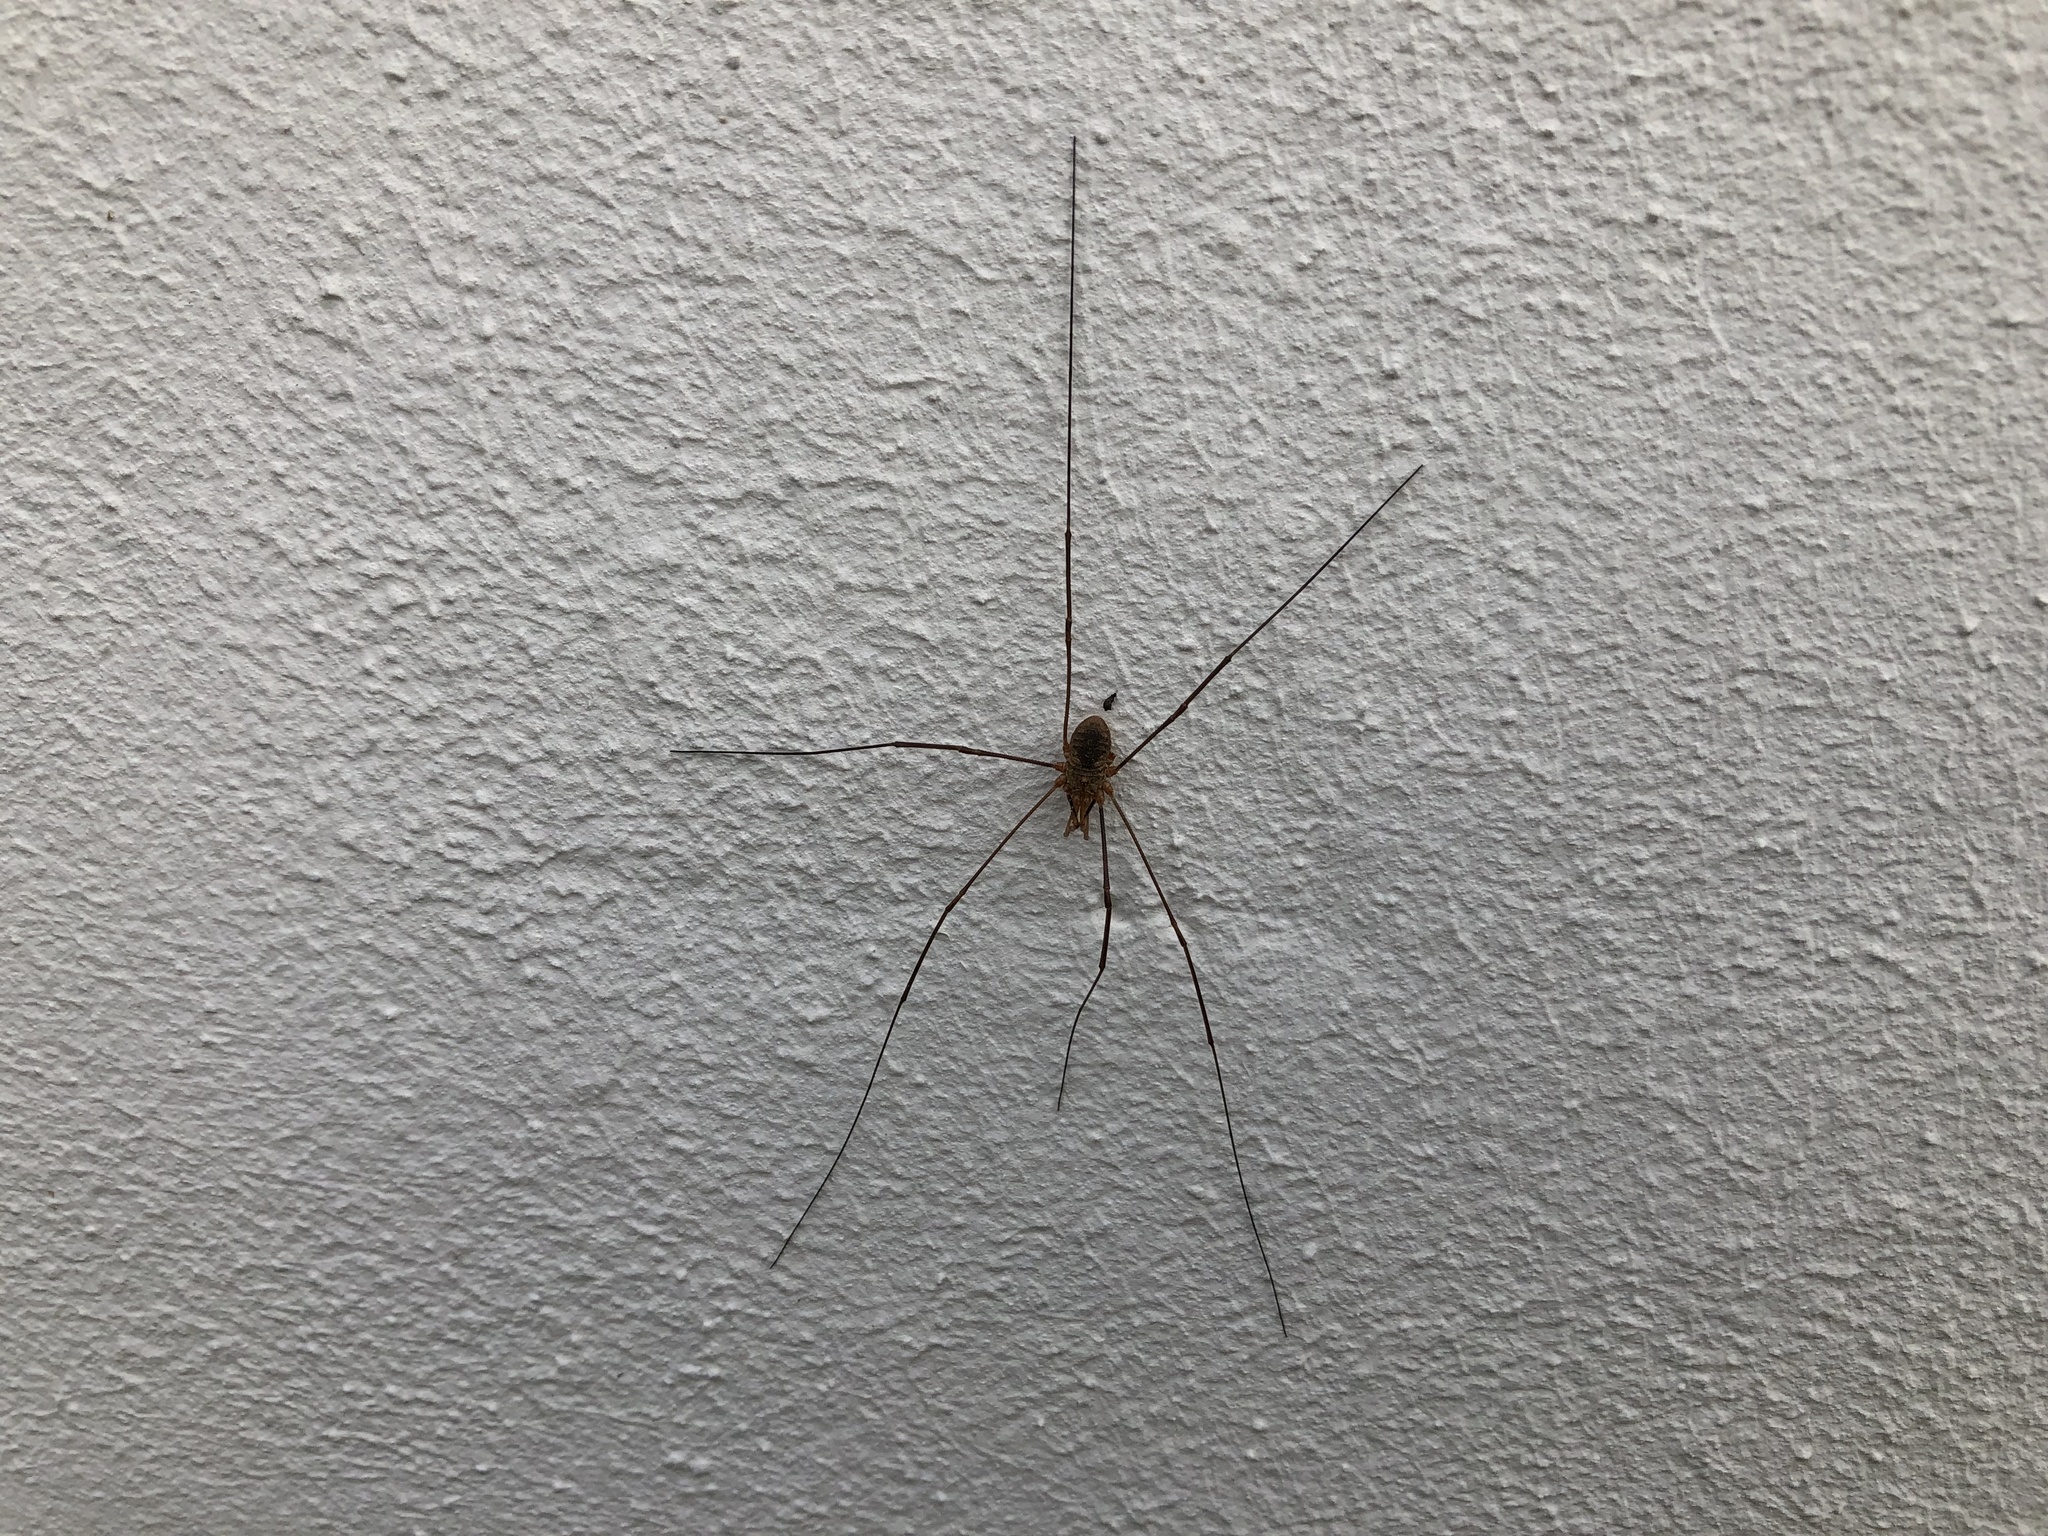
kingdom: Animalia
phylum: Arthropoda
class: Arachnida
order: Opiliones
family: Phalangiidae
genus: Phalangium
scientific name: Phalangium opilio
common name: Daddy longleg
